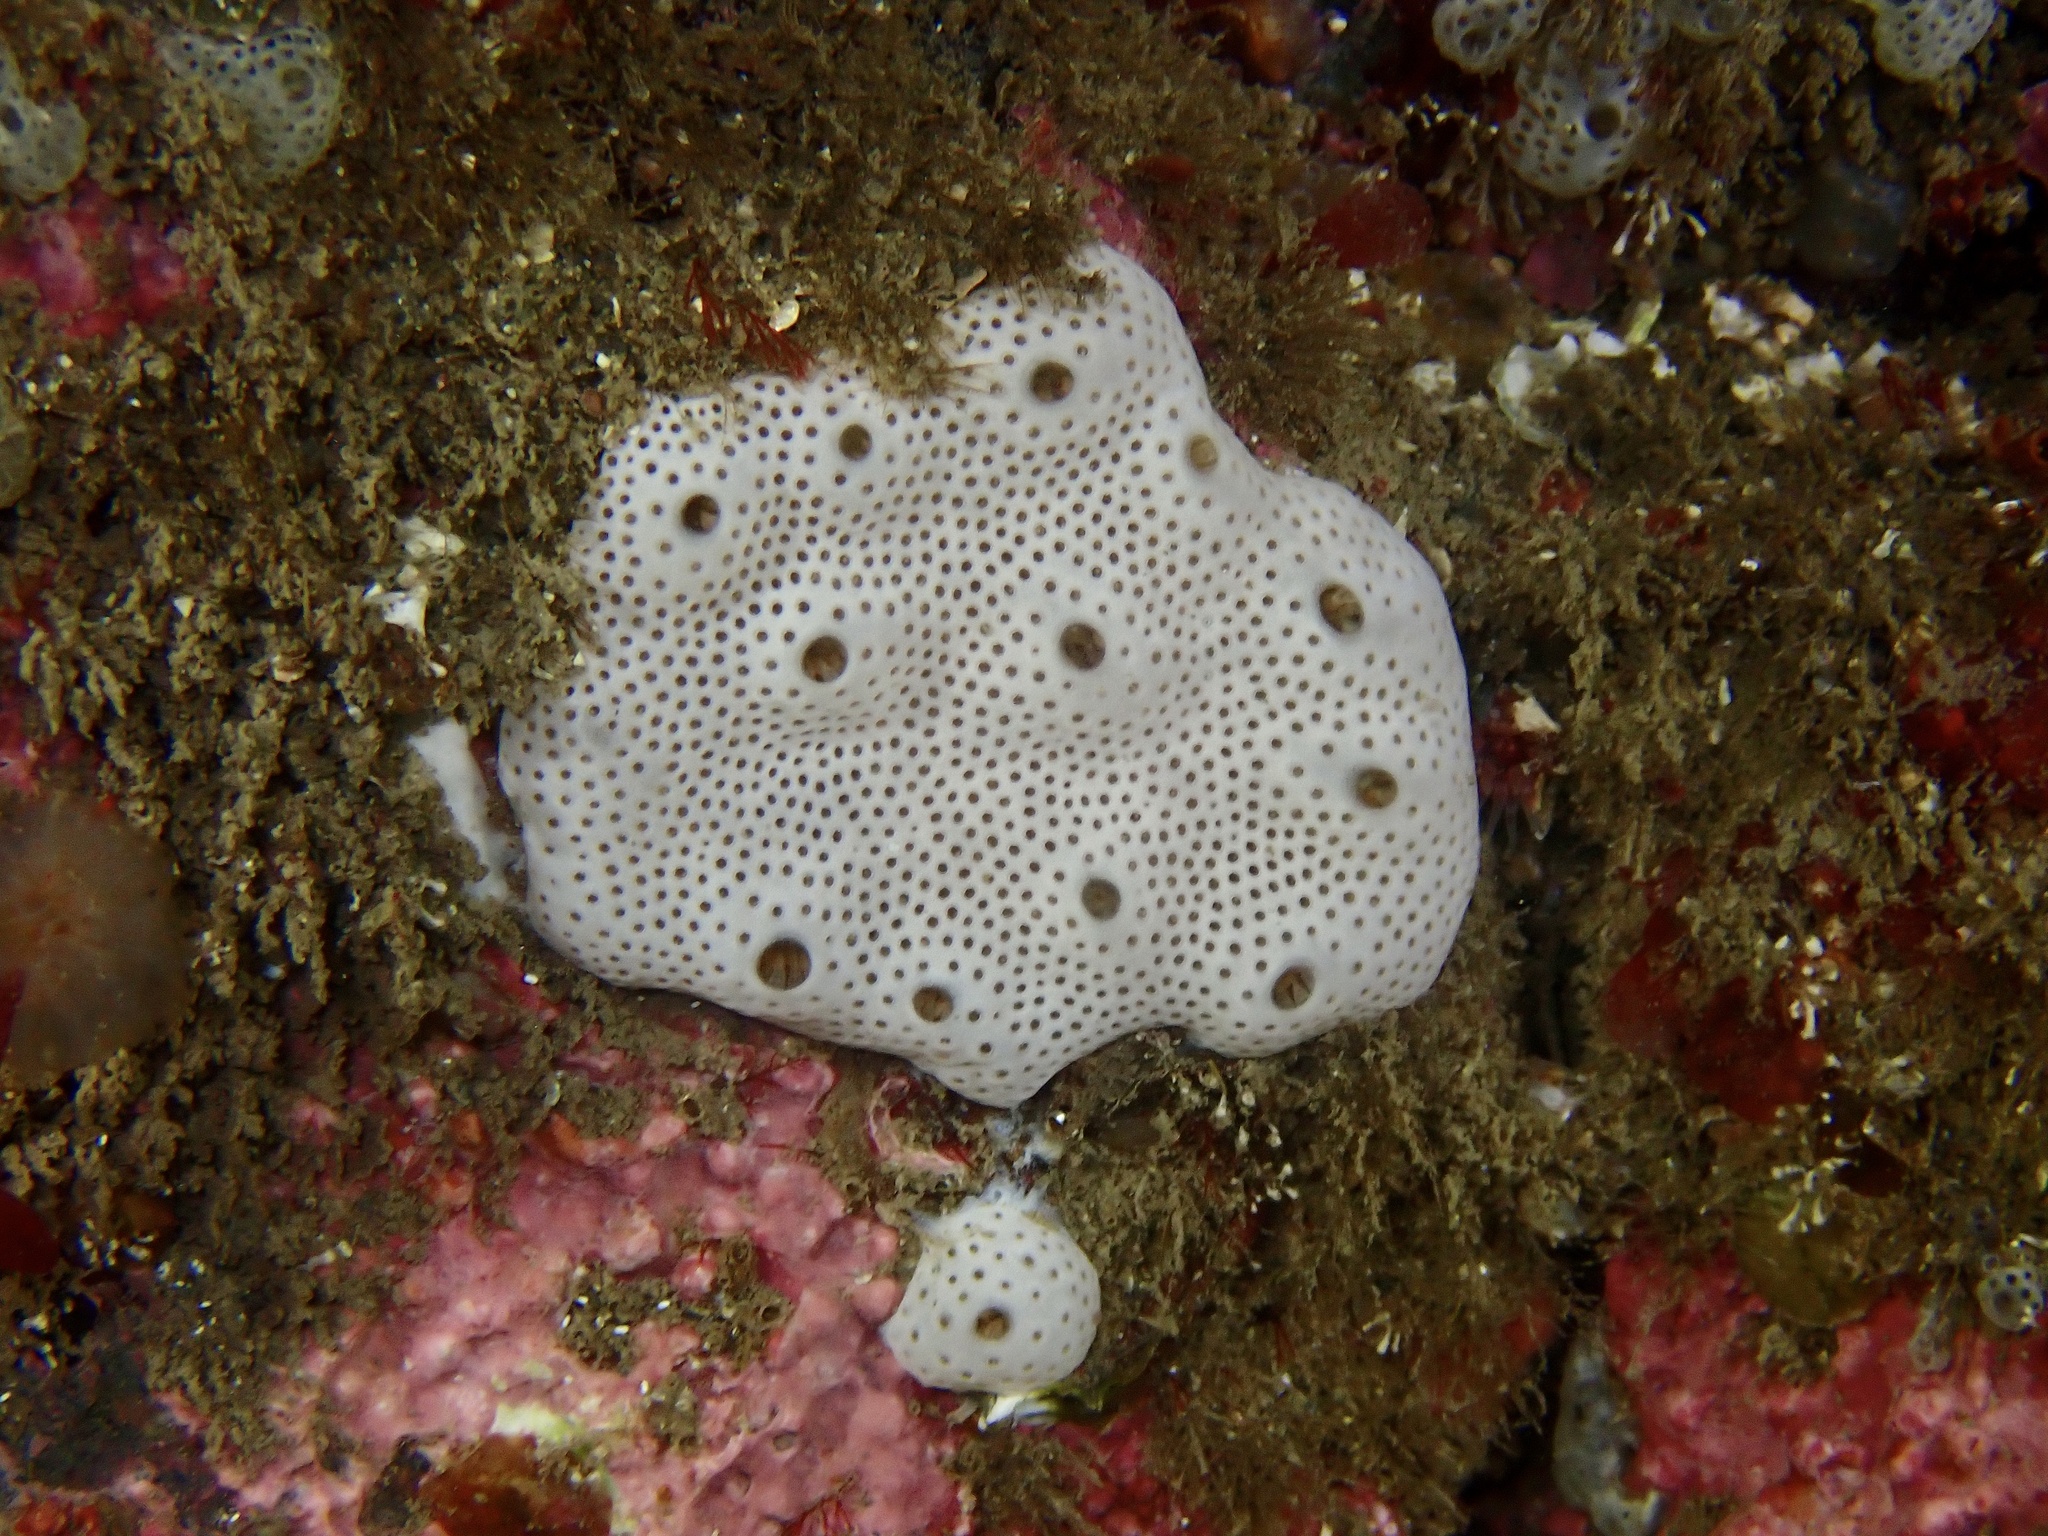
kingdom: Animalia
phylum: Chordata
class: Ascidiacea
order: Aplousobranchia
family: Didemnidae
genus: Lissoclinum
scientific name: Lissoclinum perforatum
